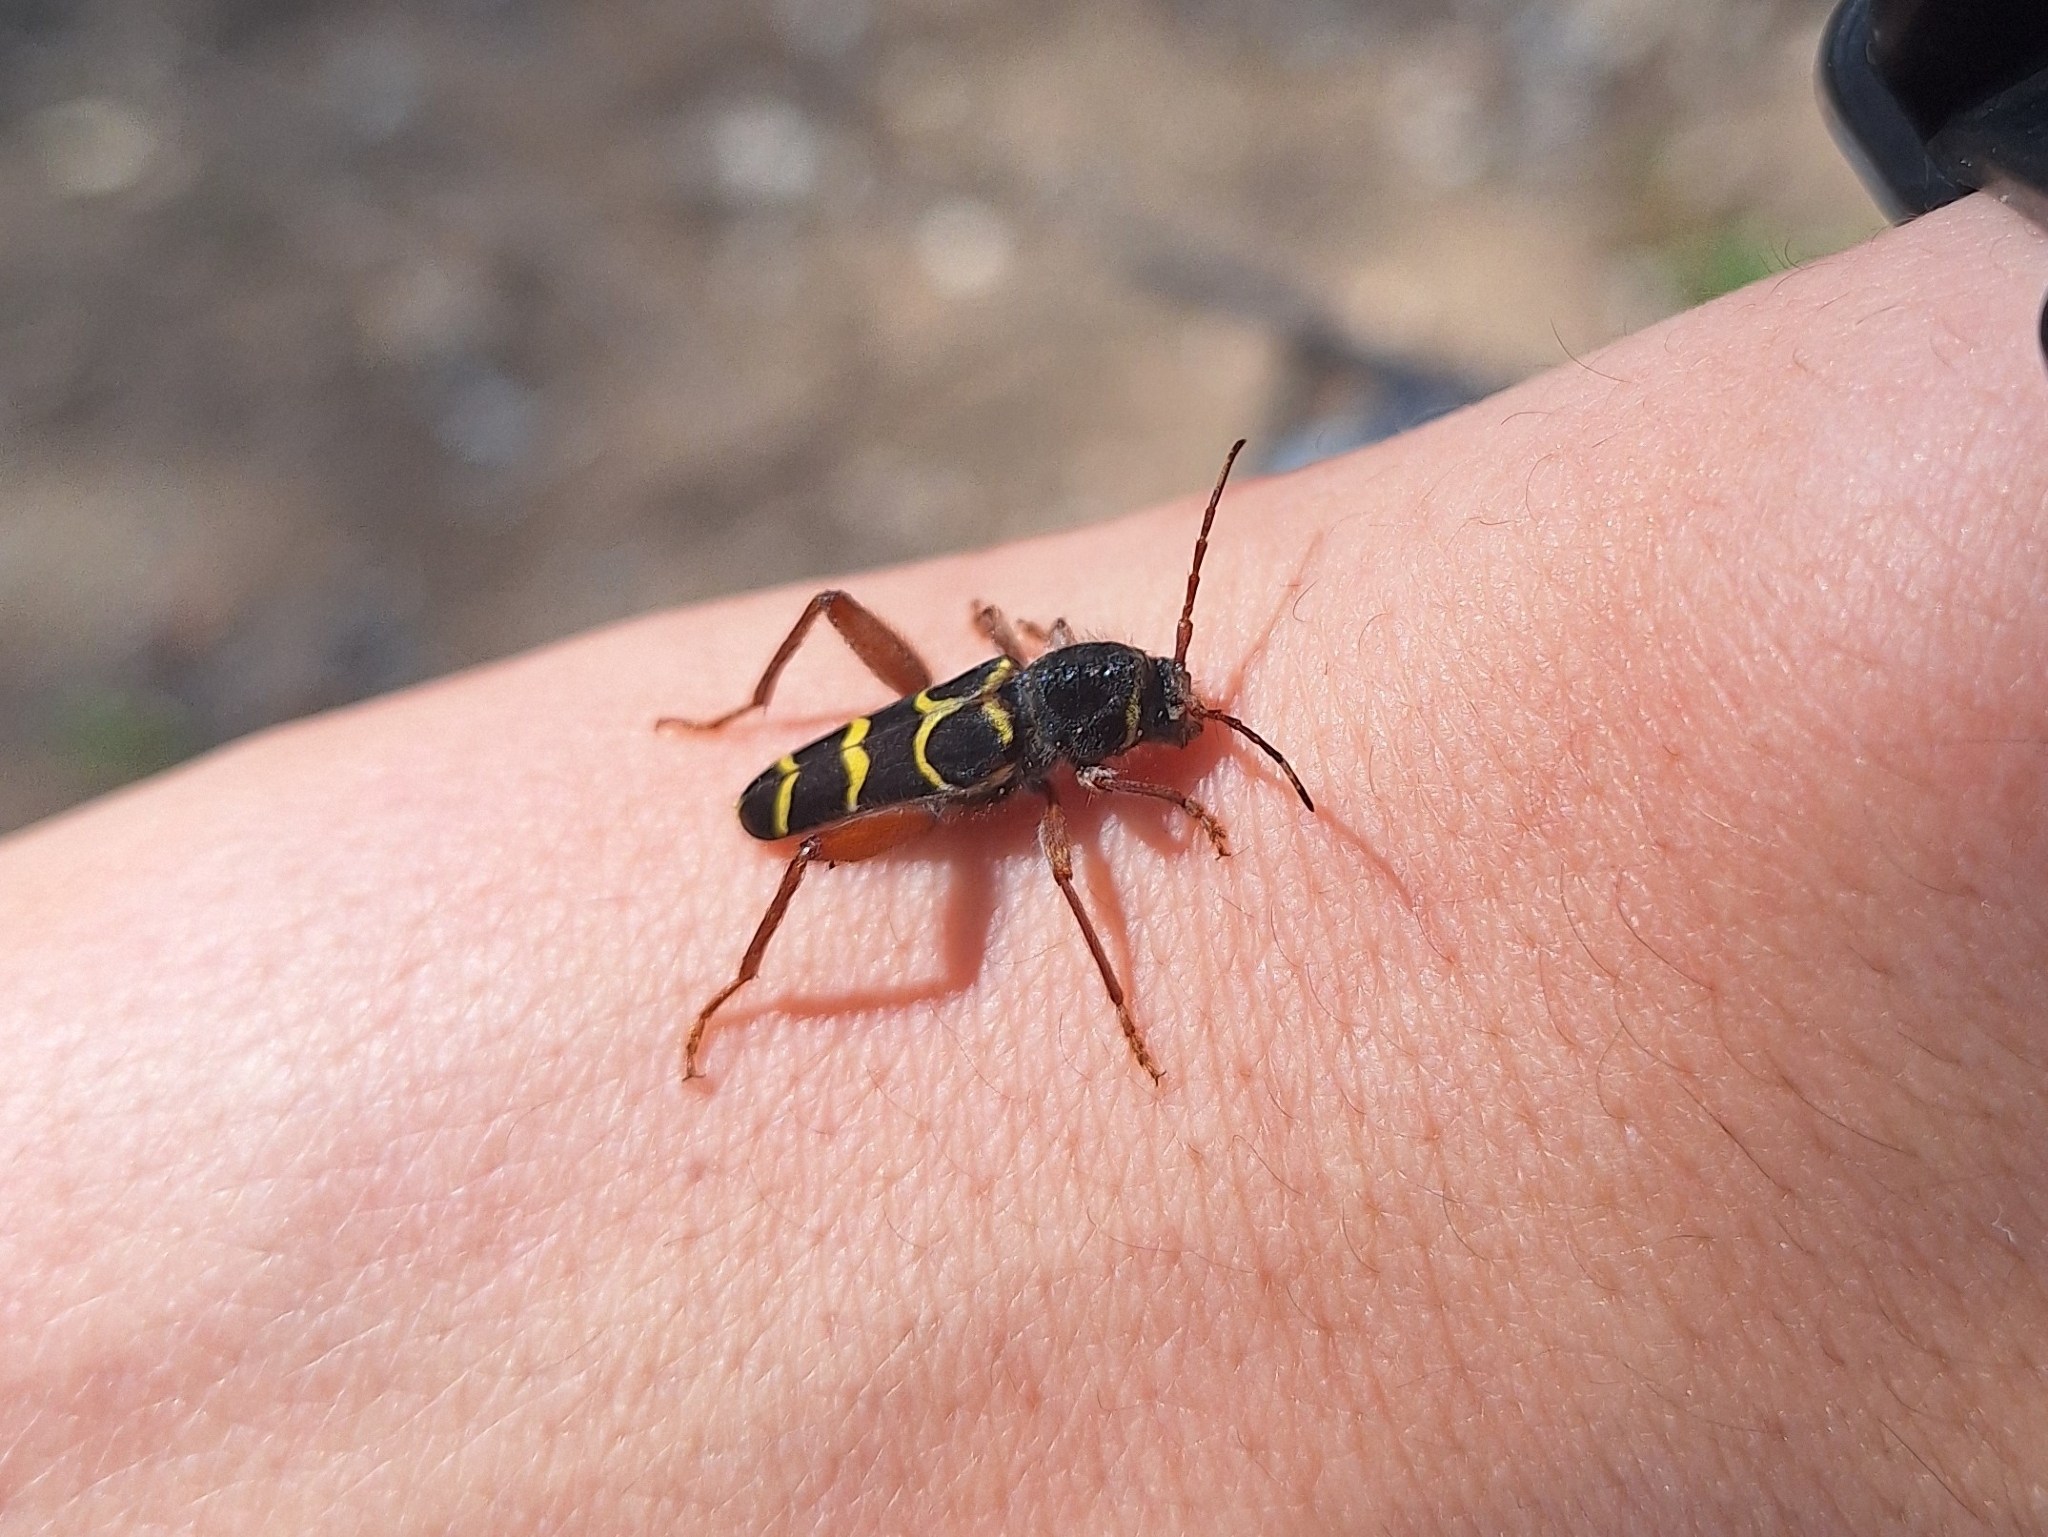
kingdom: Animalia
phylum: Arthropoda
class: Insecta
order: Coleoptera
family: Cerambycidae
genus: Neoclytus
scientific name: Neoclytus caprea
